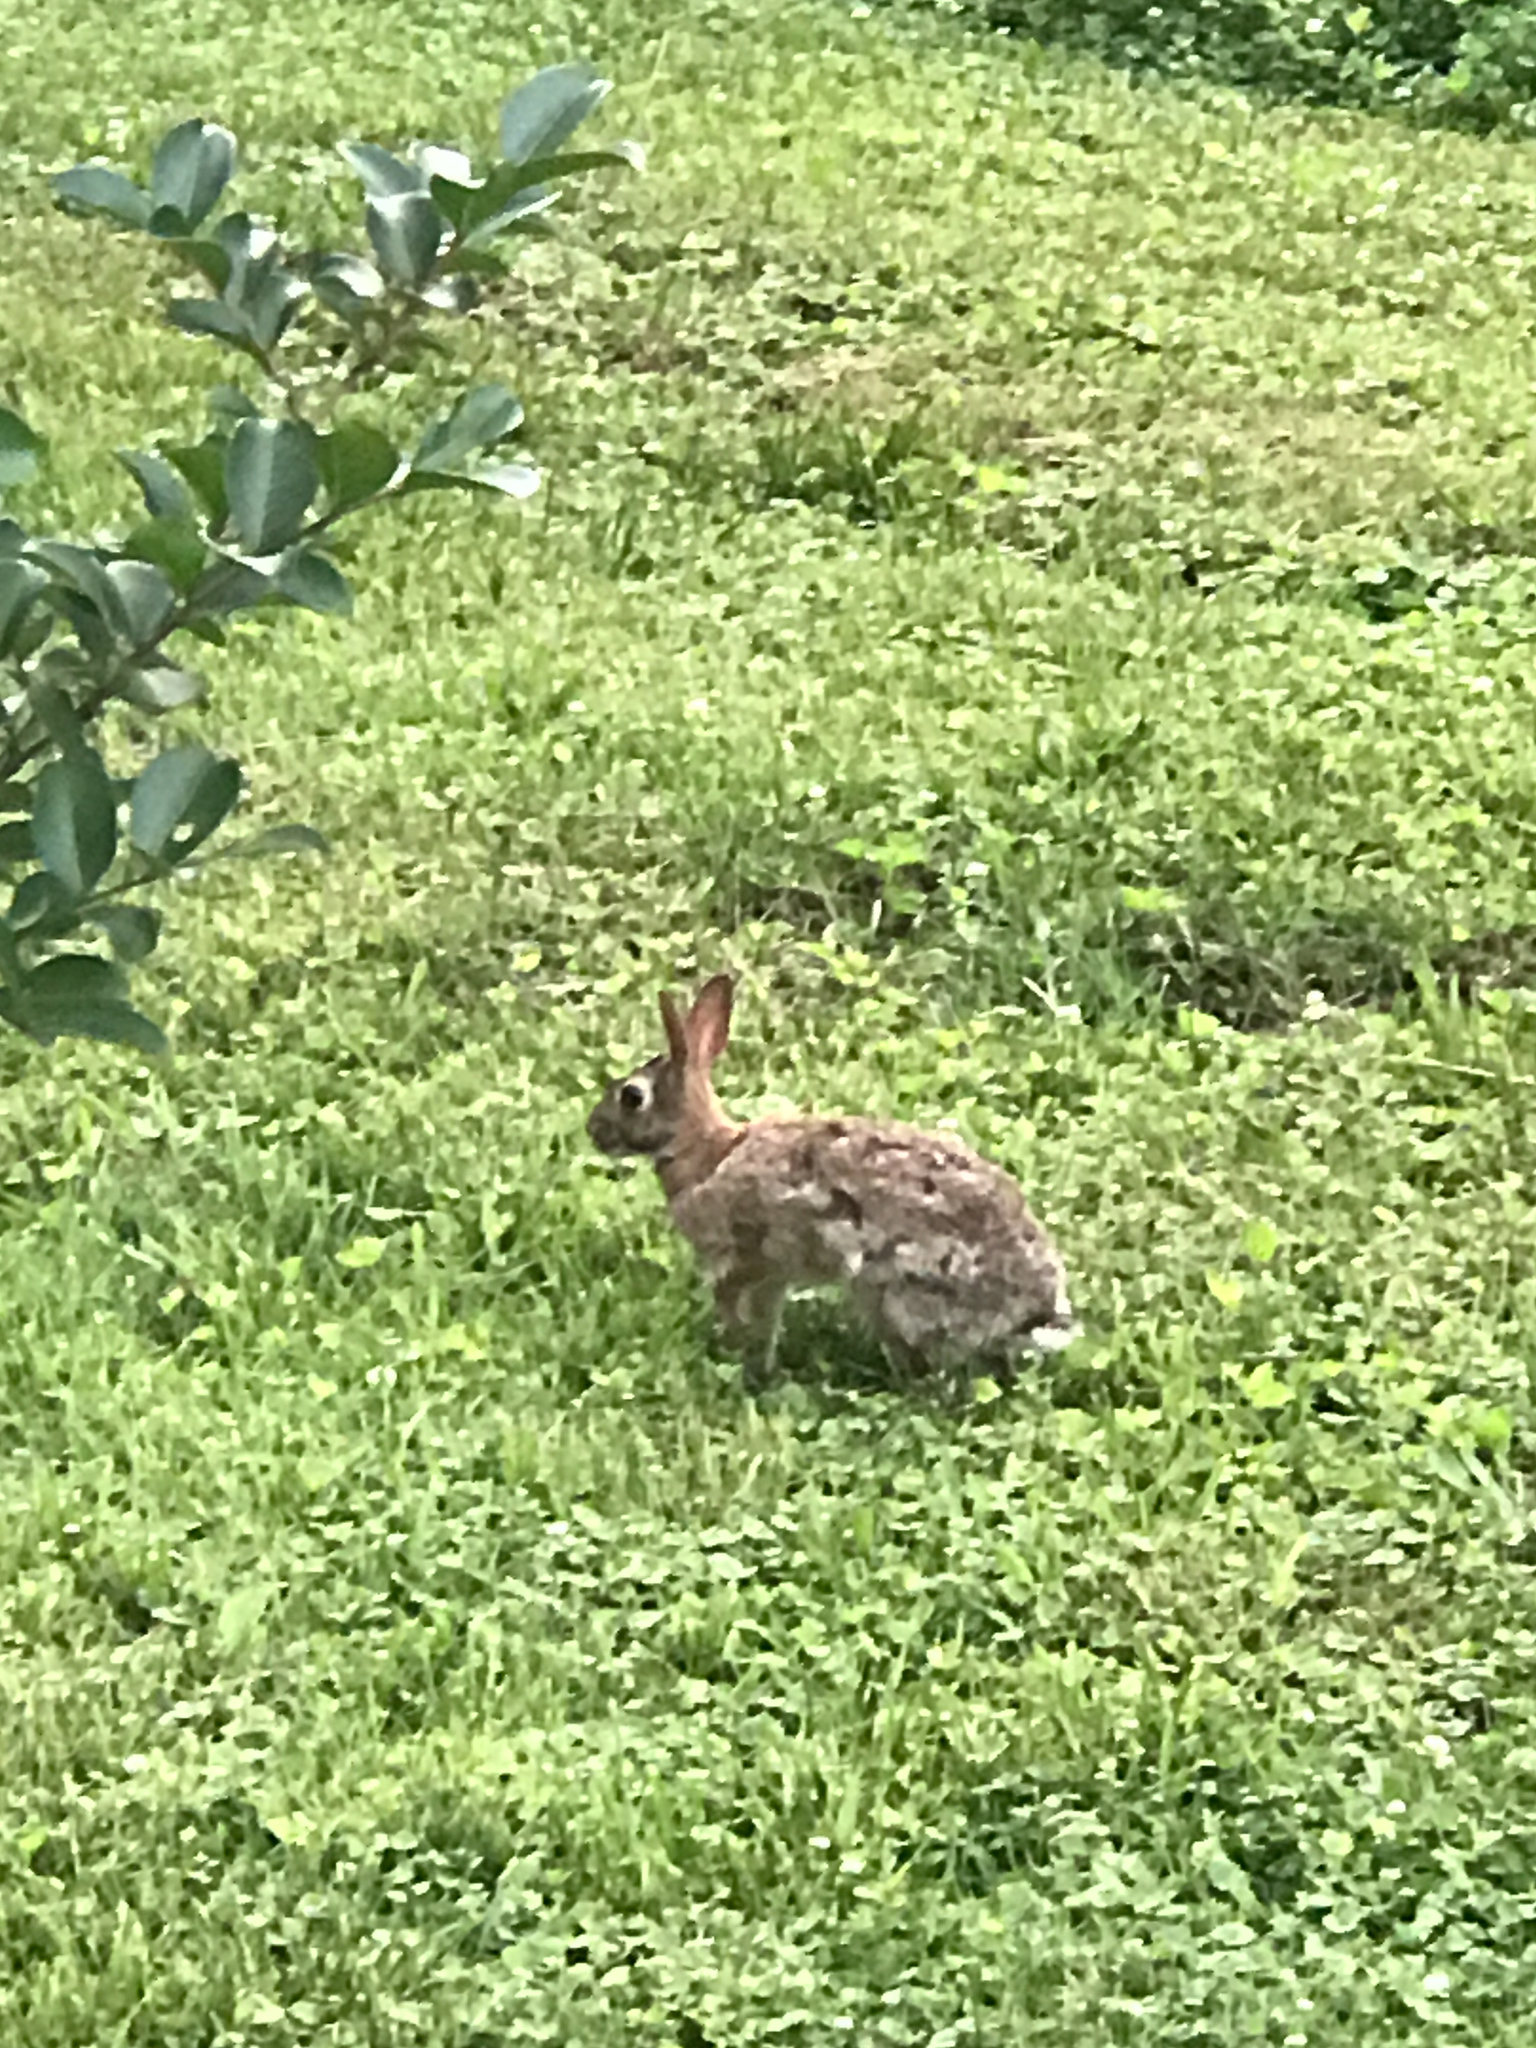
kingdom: Animalia
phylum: Chordata
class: Mammalia
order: Lagomorpha
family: Leporidae
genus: Sylvilagus
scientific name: Sylvilagus floridanus
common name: Eastern cottontail
